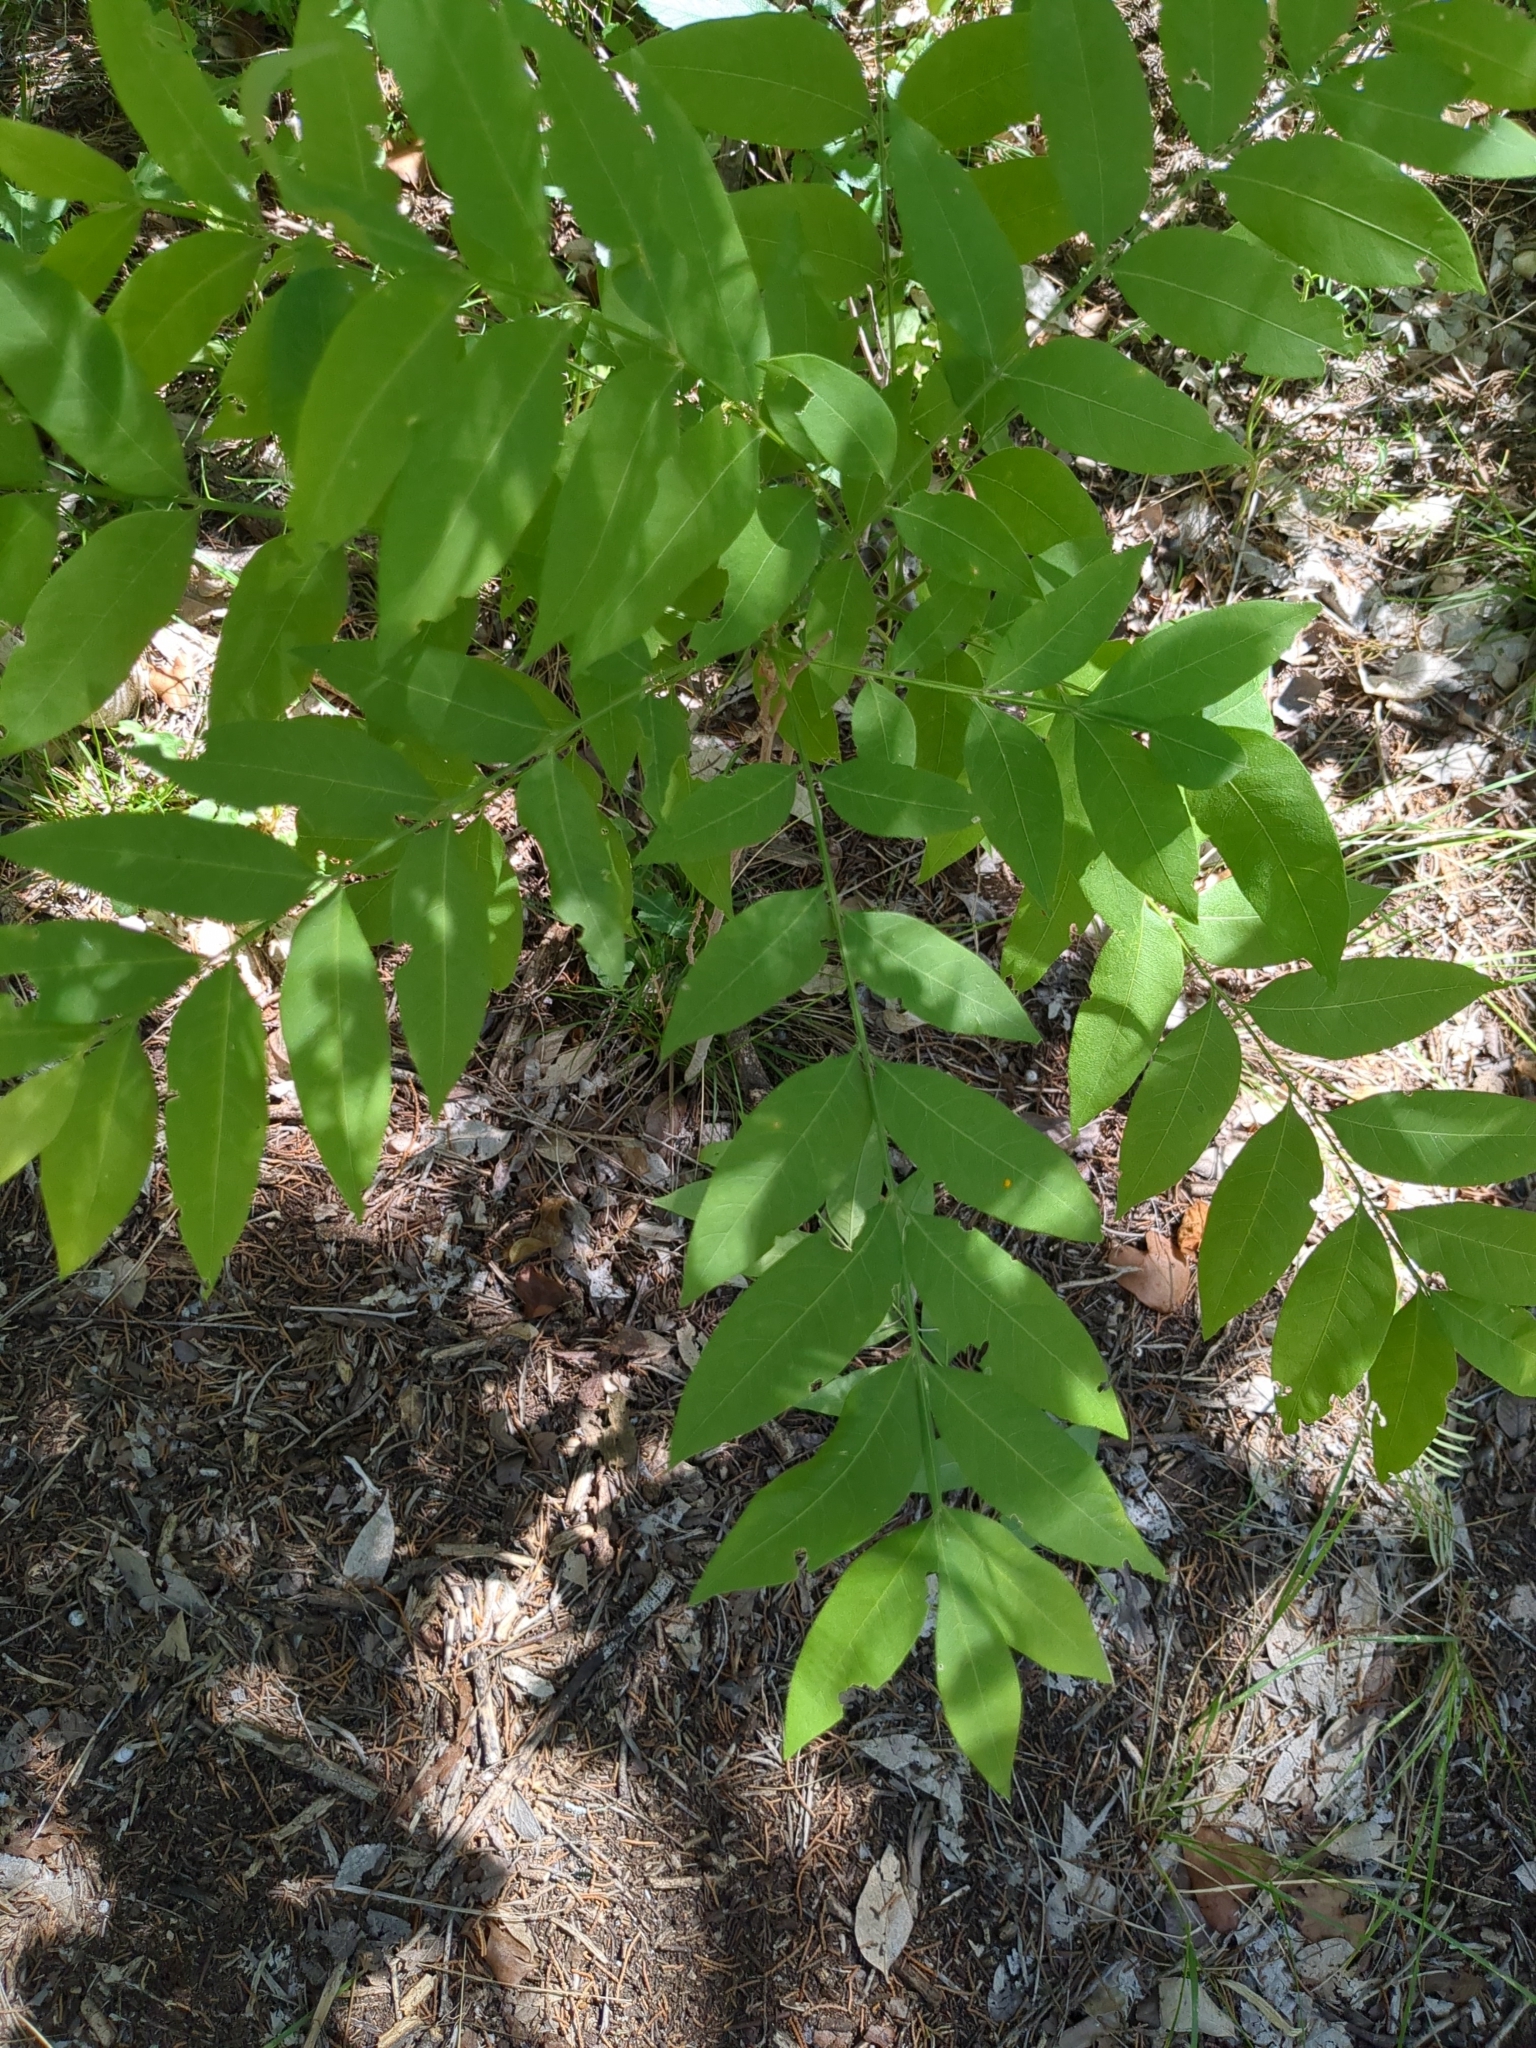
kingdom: Plantae
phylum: Tracheophyta
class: Magnoliopsida
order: Sapindales
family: Sapindaceae
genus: Sapindus
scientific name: Sapindus drummondii
